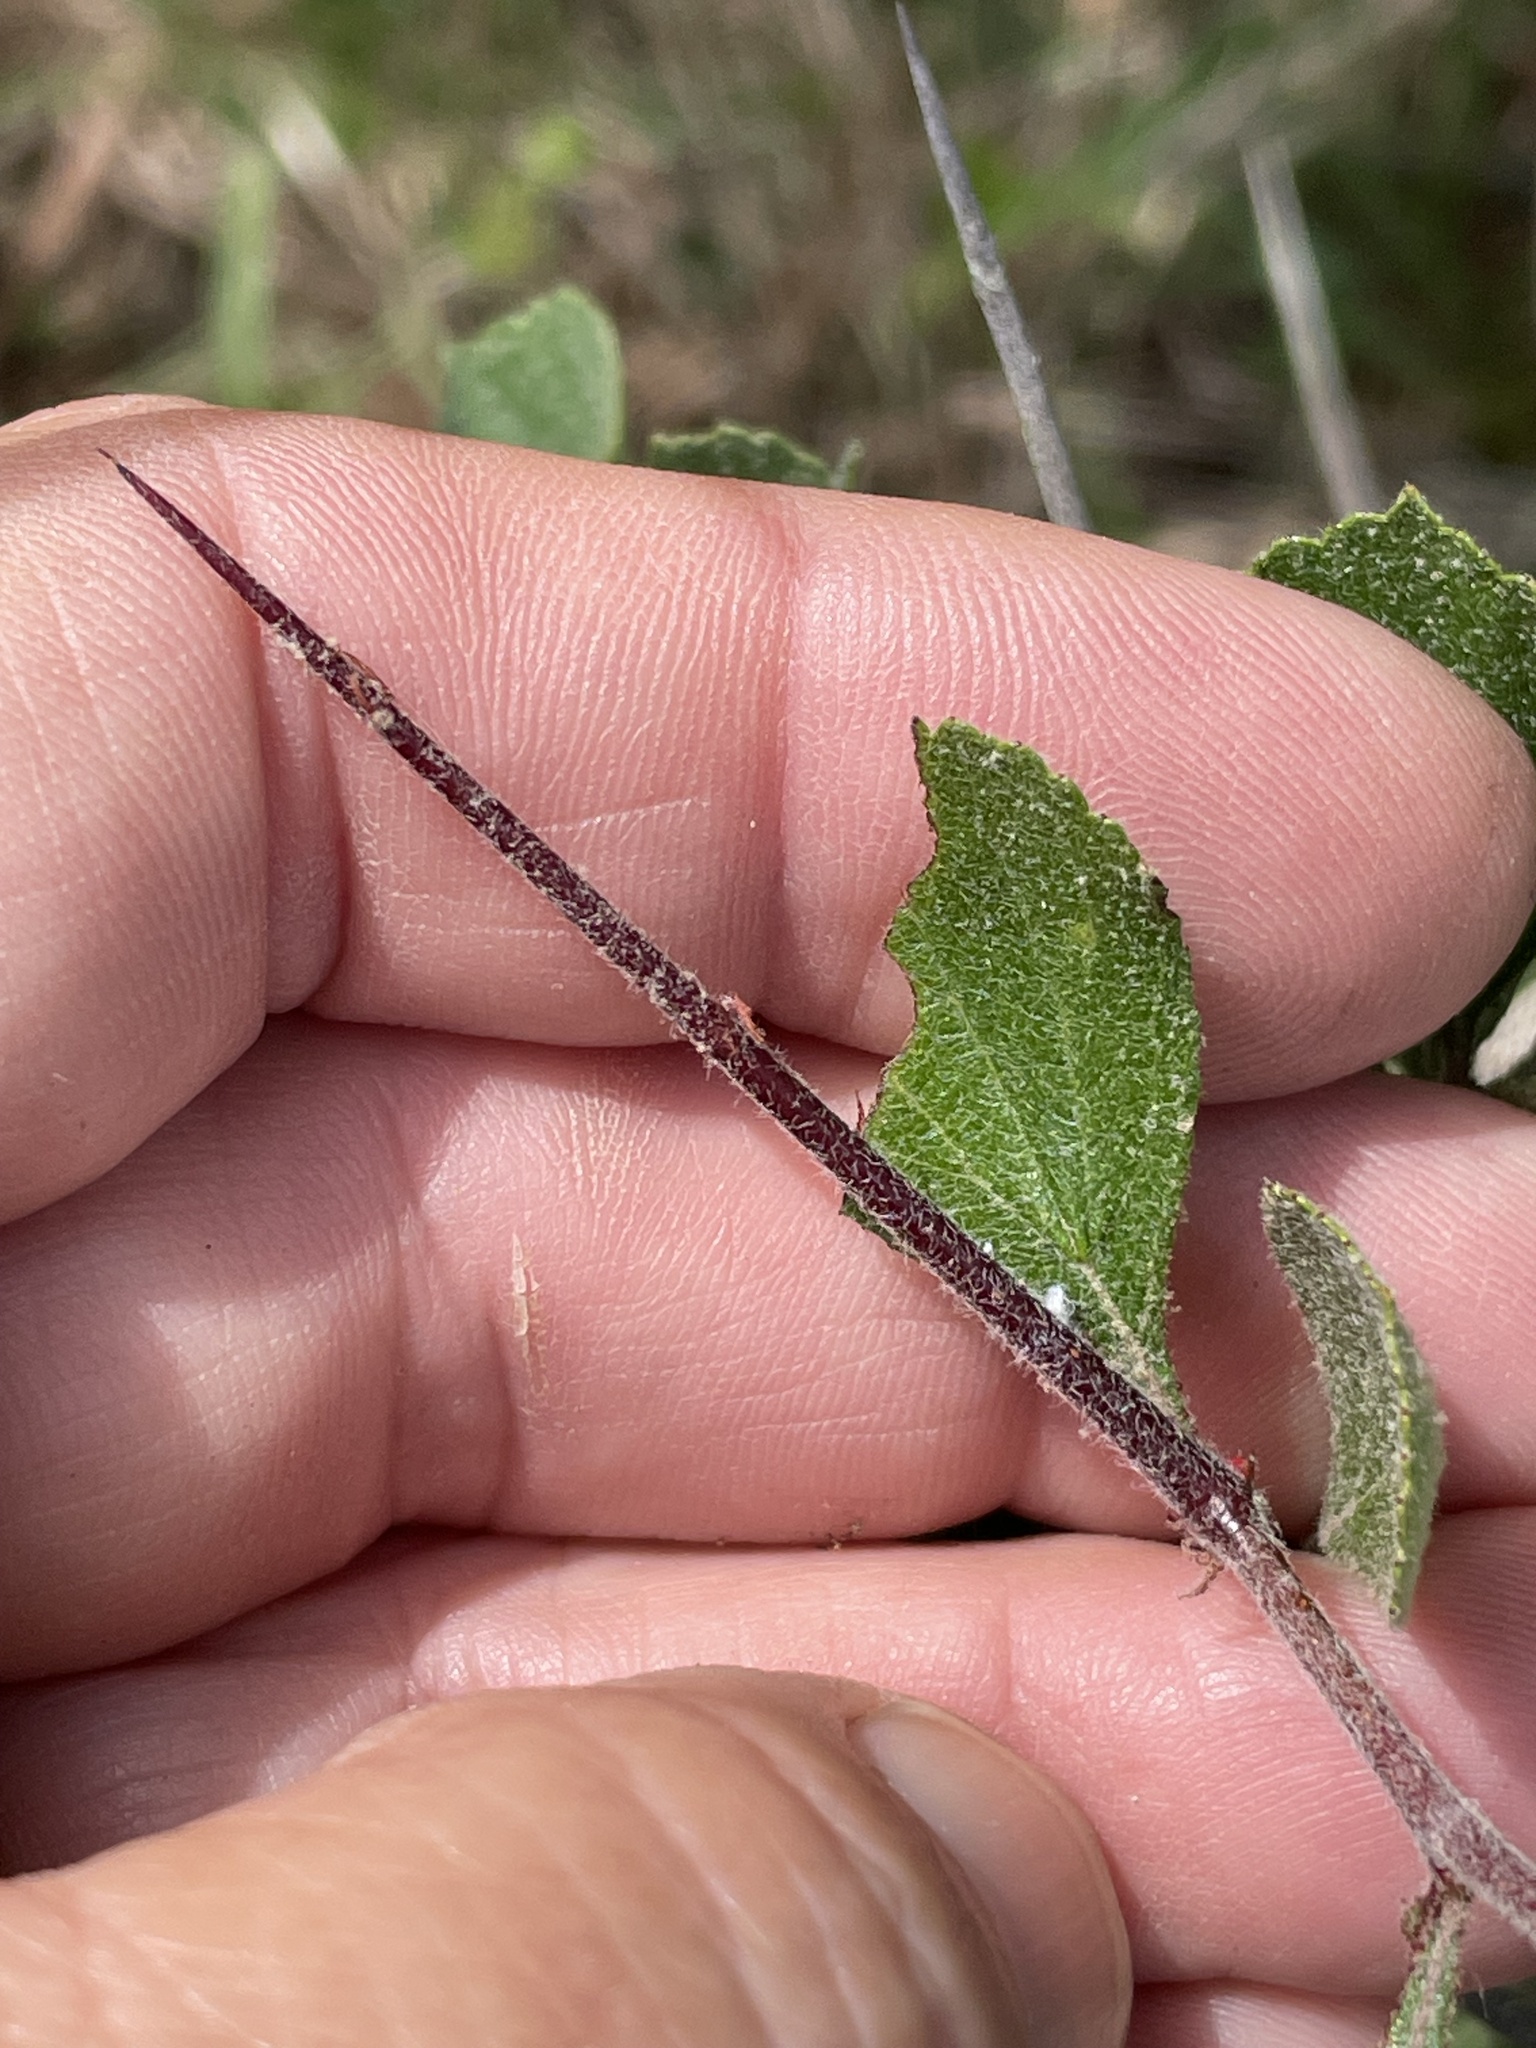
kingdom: Plantae
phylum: Tracheophyta
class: Magnoliopsida
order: Rosales
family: Rosaceae
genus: Crataegus
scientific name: Crataegus munda
